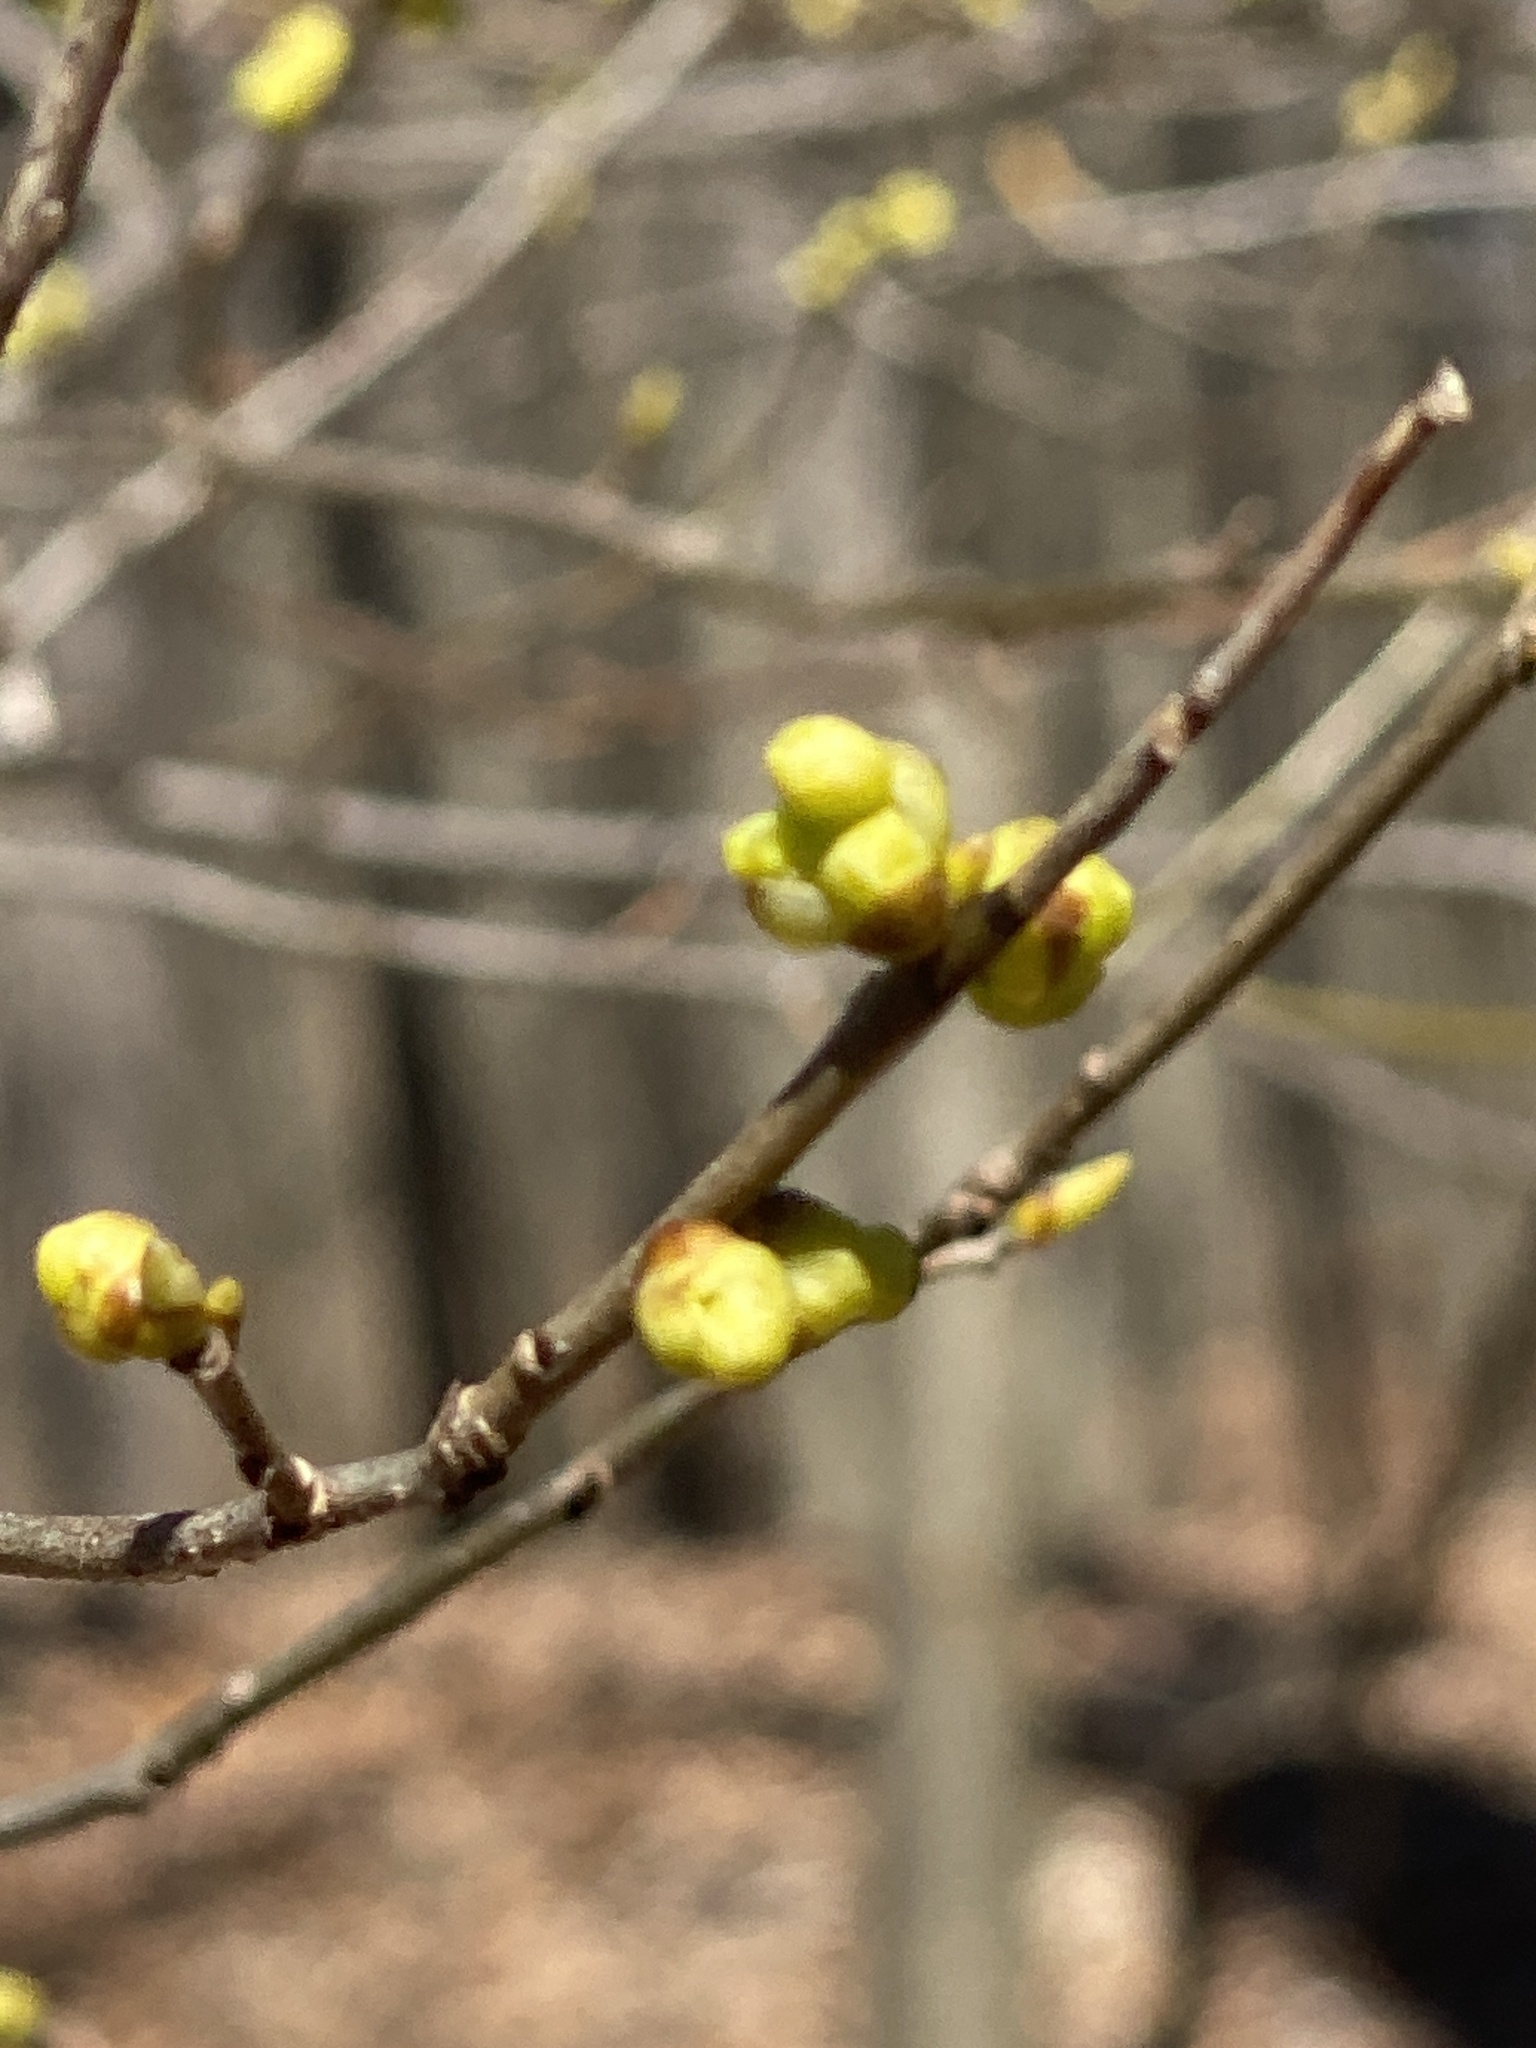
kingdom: Plantae
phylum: Tracheophyta
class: Magnoliopsida
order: Laurales
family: Lauraceae
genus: Lindera
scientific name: Lindera benzoin
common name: Spicebush
